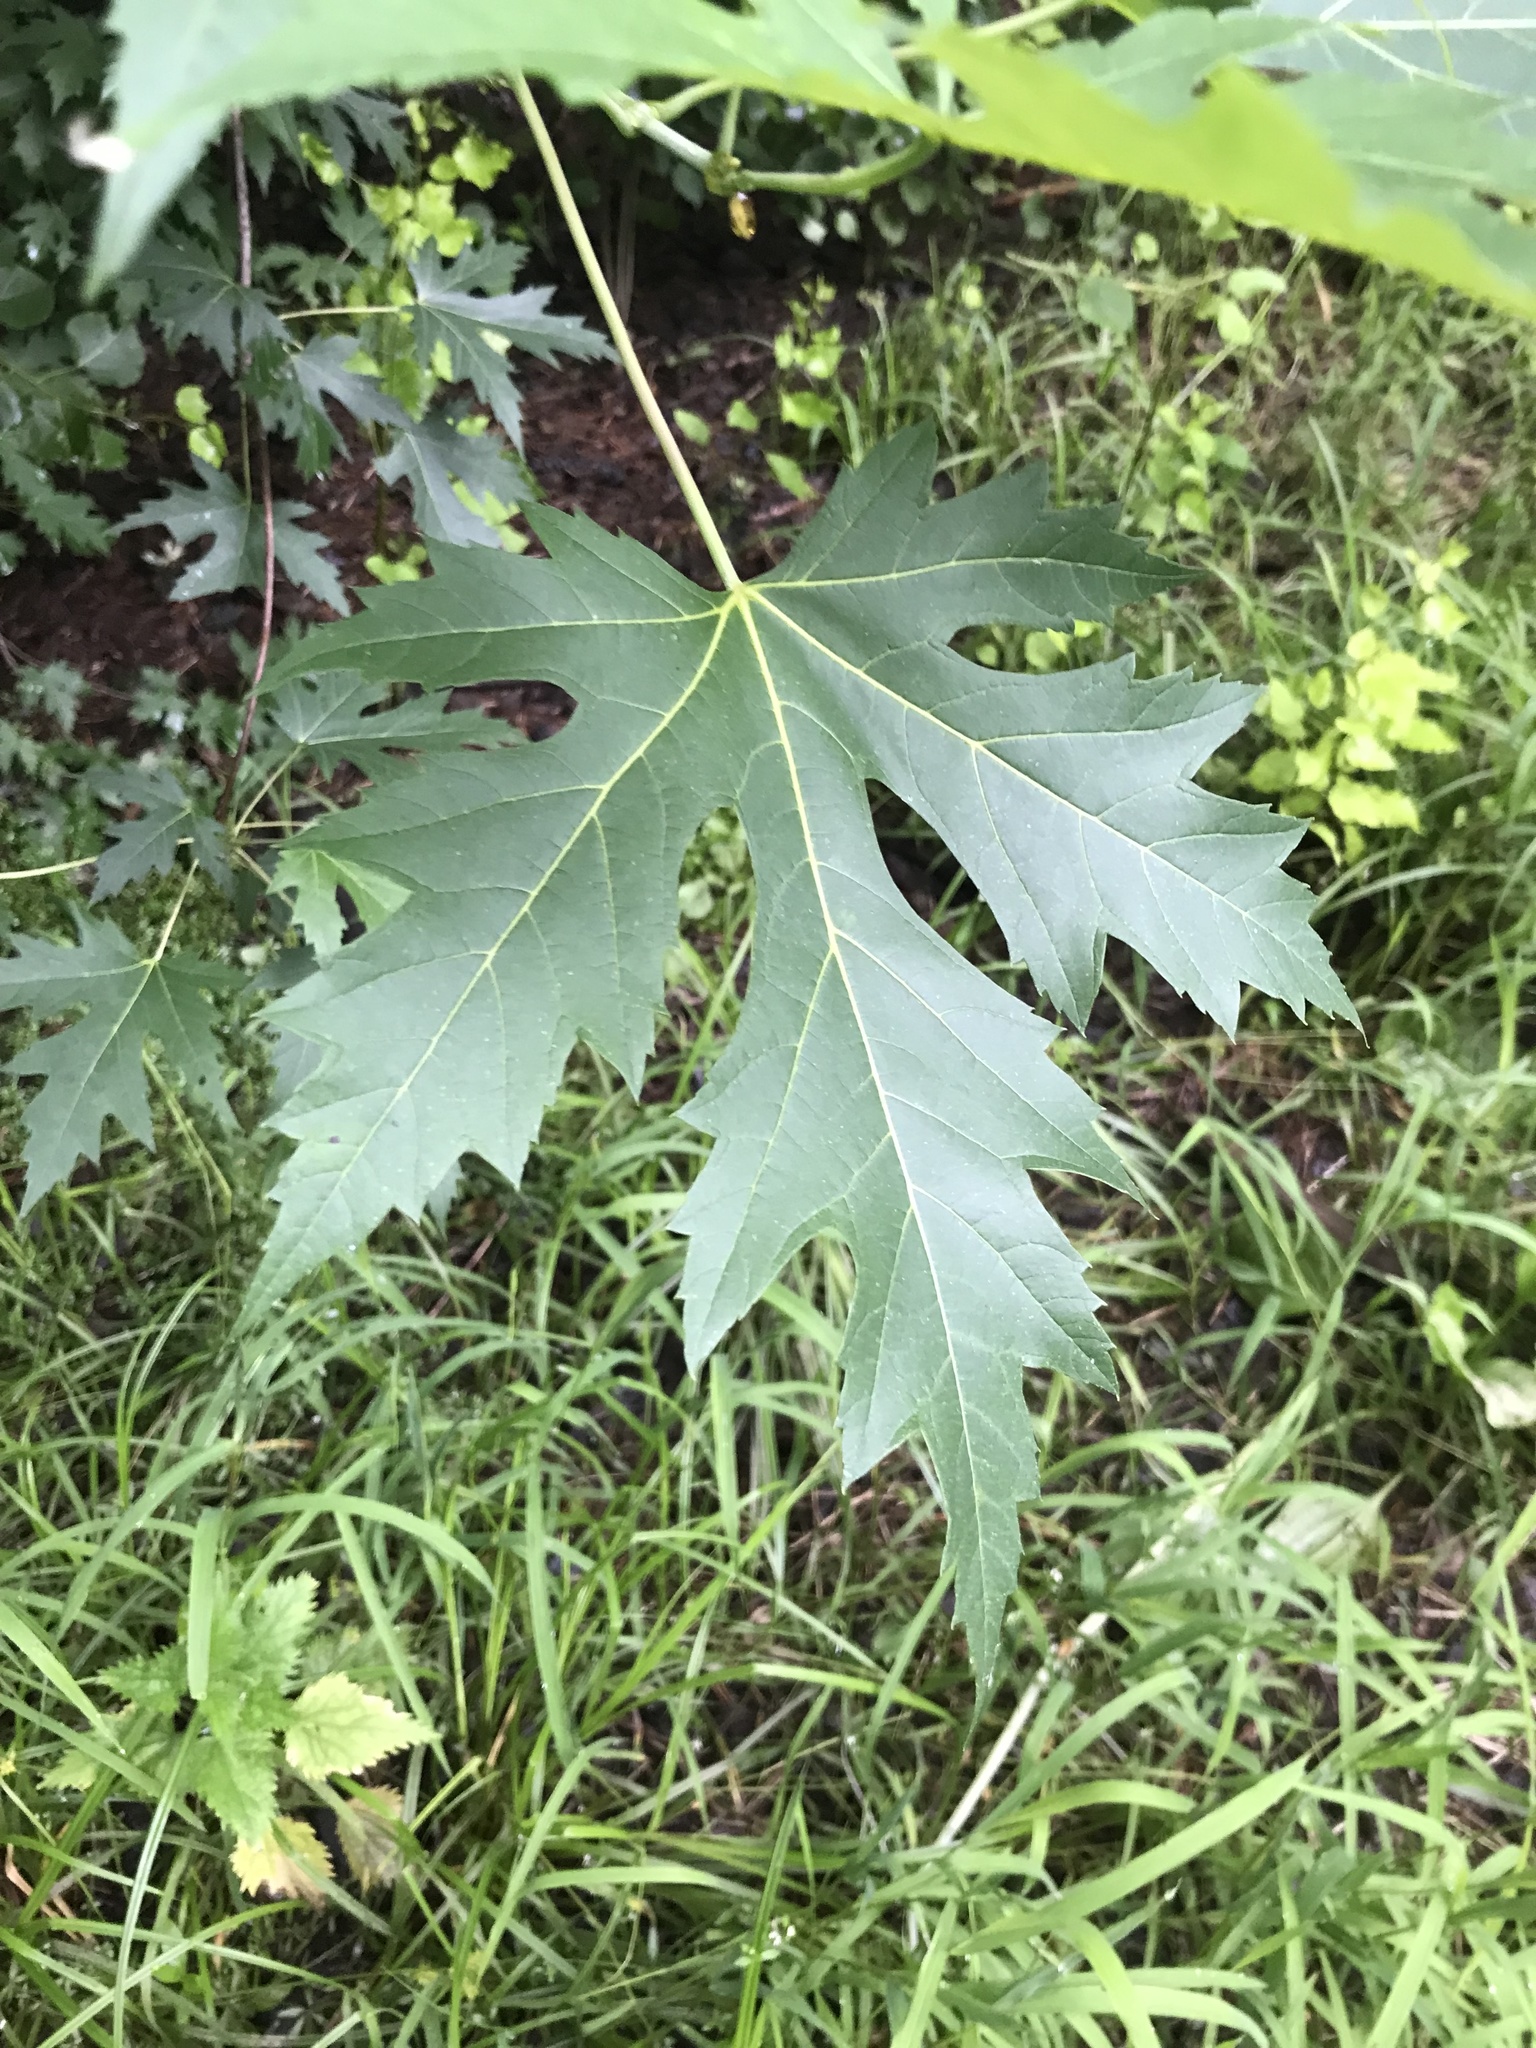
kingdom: Plantae
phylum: Tracheophyta
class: Magnoliopsida
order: Sapindales
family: Sapindaceae
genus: Acer
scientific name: Acer saccharinum
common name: Silver maple
